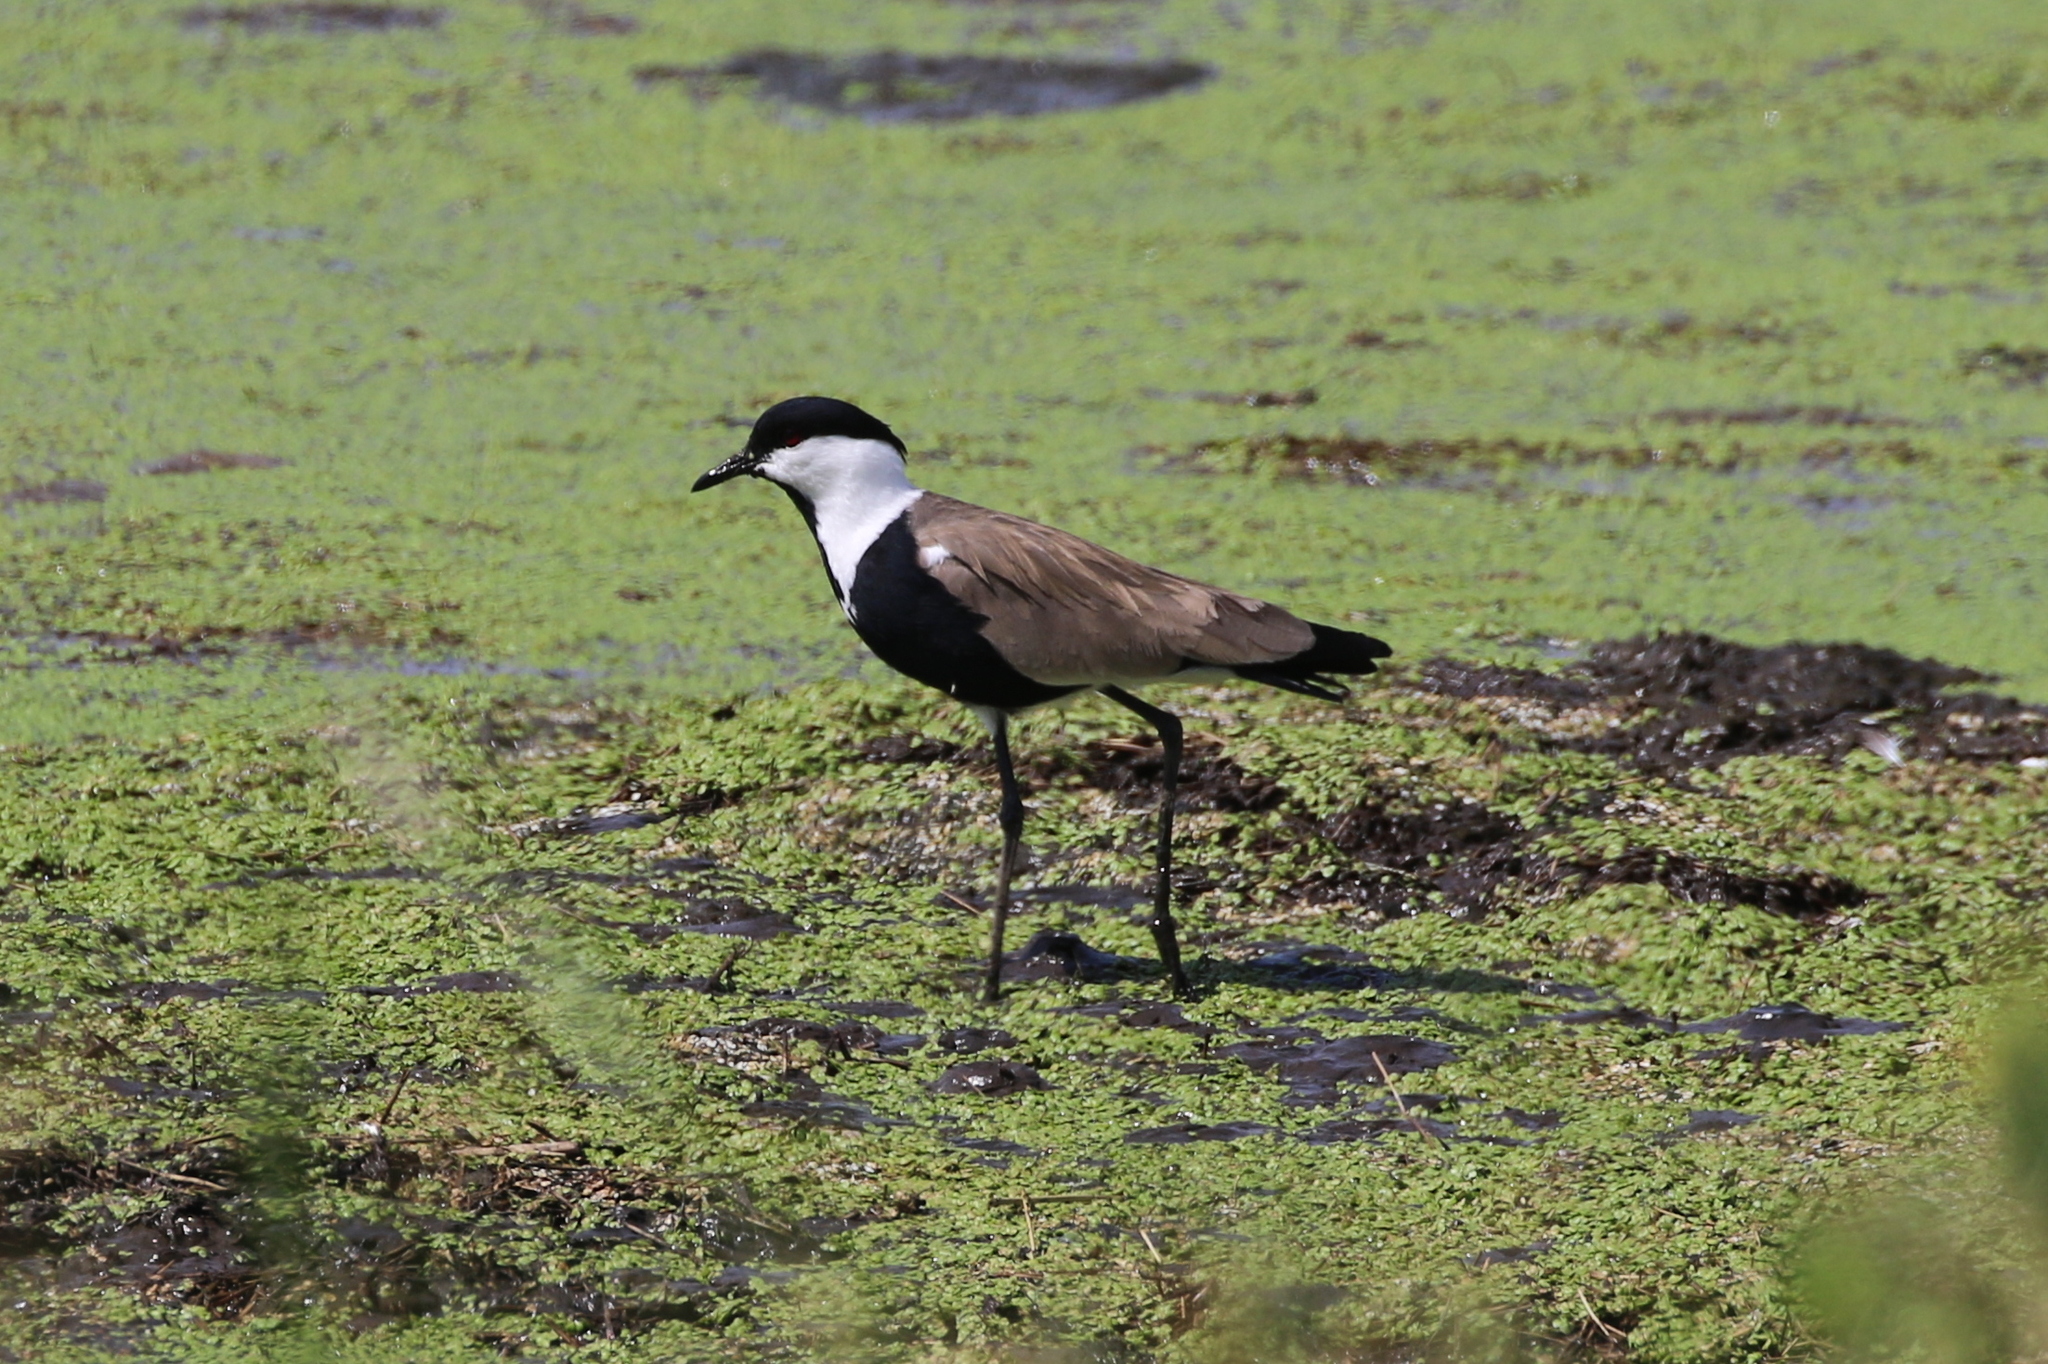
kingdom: Animalia
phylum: Chordata
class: Aves
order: Charadriiformes
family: Charadriidae
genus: Vanellus
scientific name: Vanellus spinosus
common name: Spur-winged lapwing
